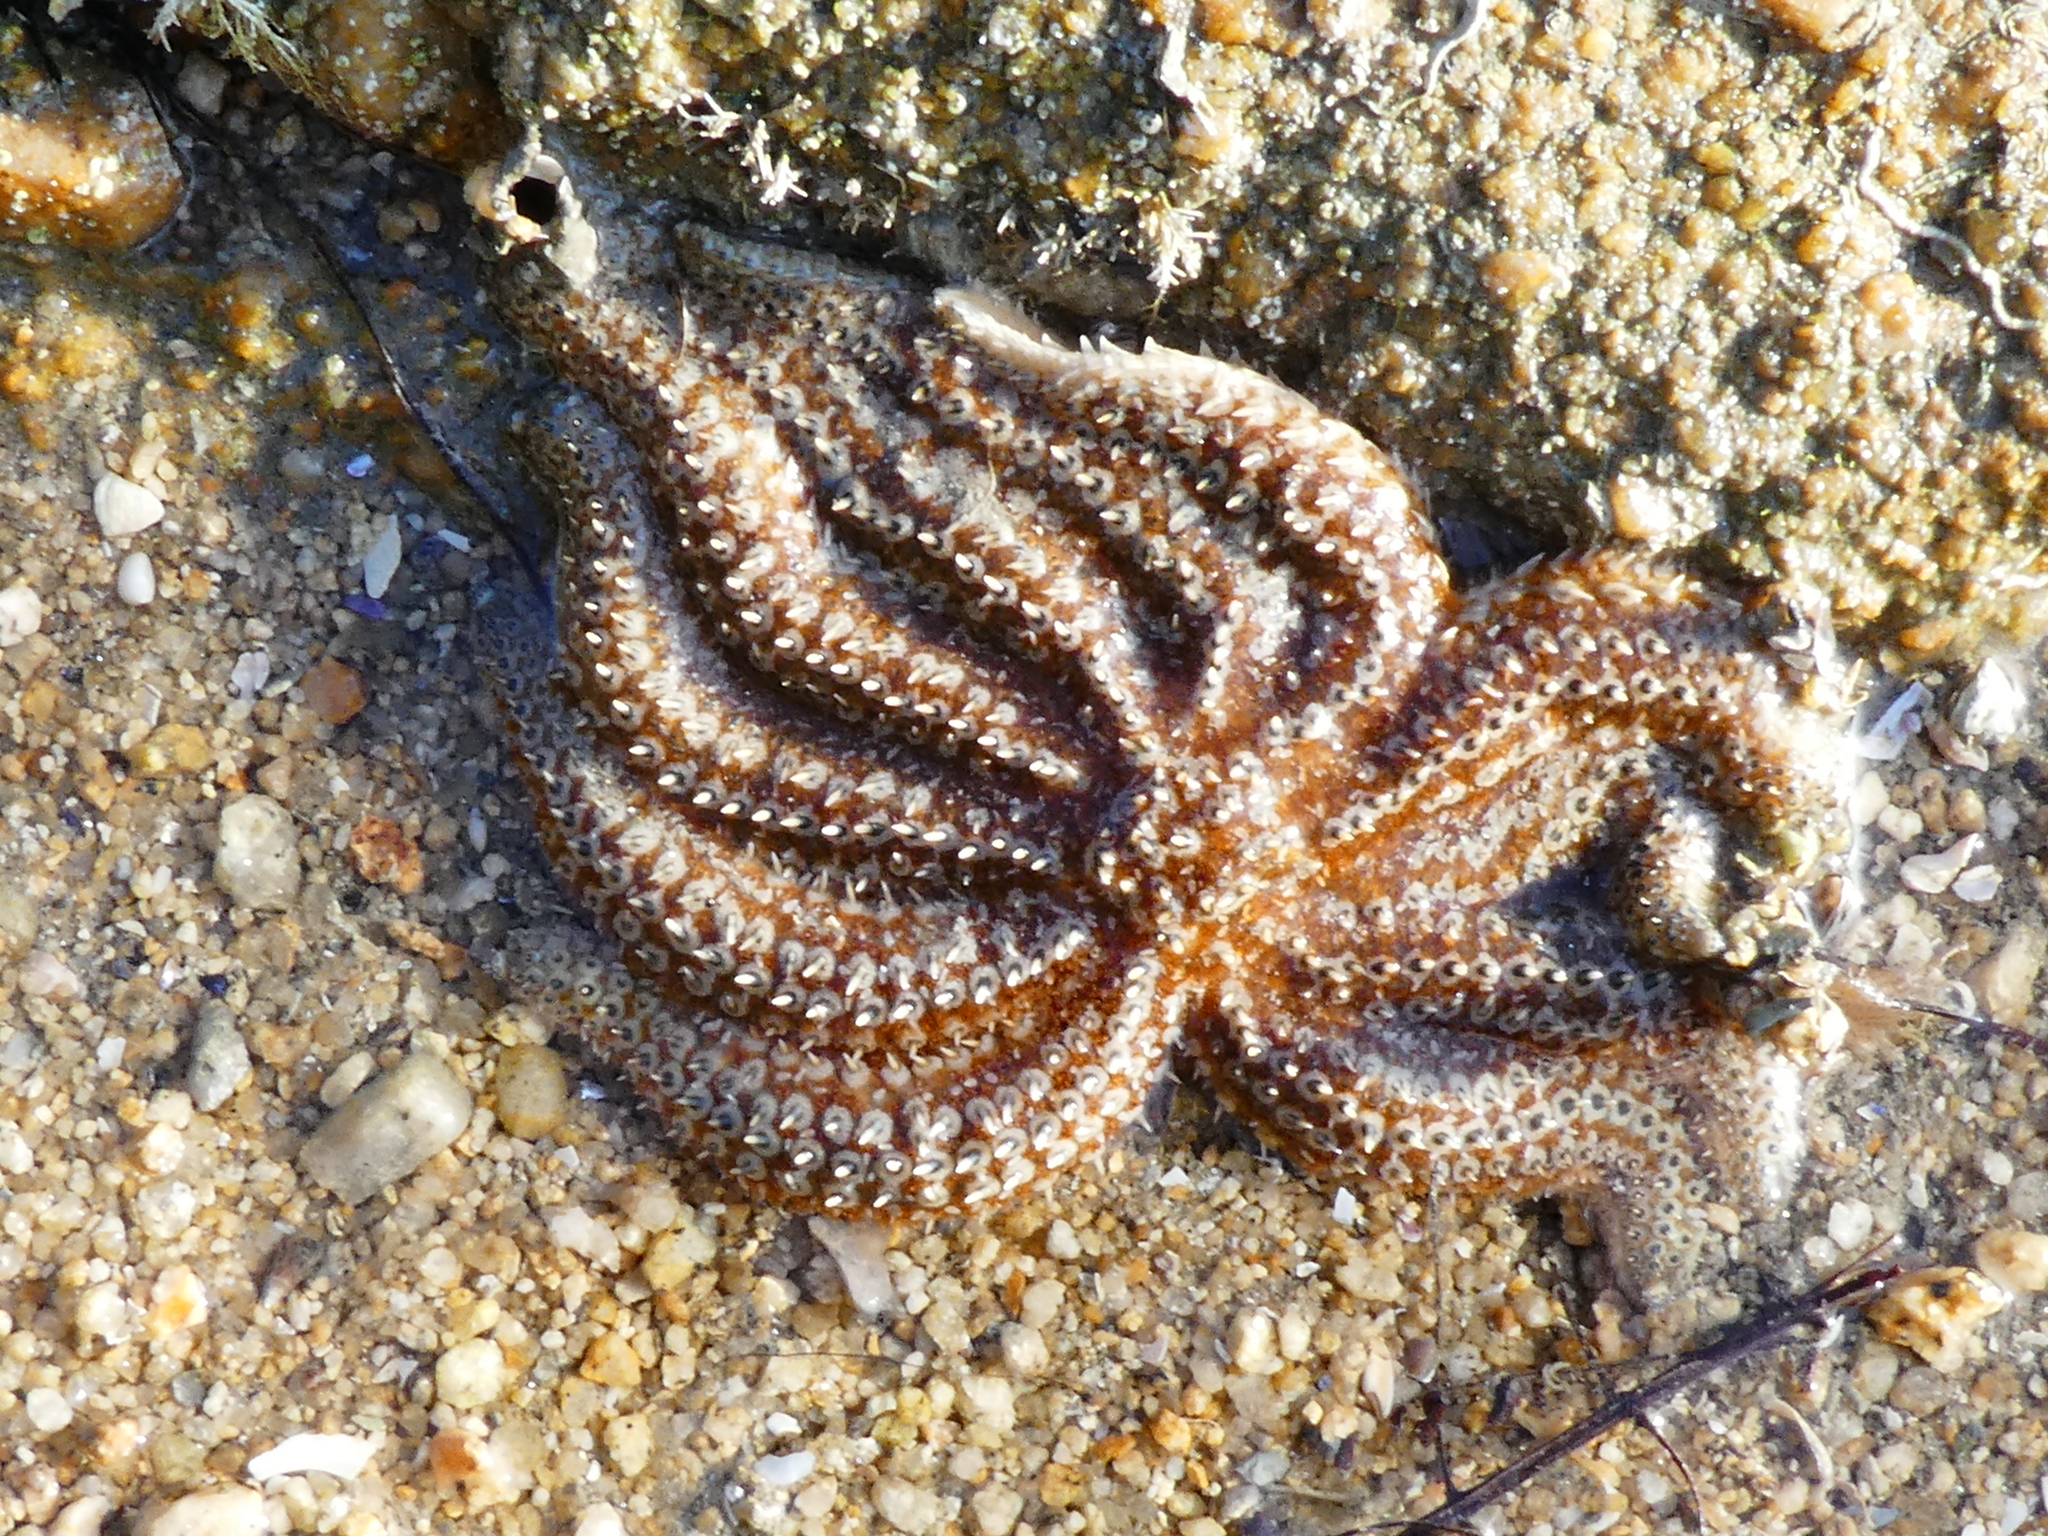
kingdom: Animalia
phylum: Echinodermata
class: Asteroidea
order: Forcipulatida
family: Asteriidae
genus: Coscinasterias
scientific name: Coscinasterias muricata
